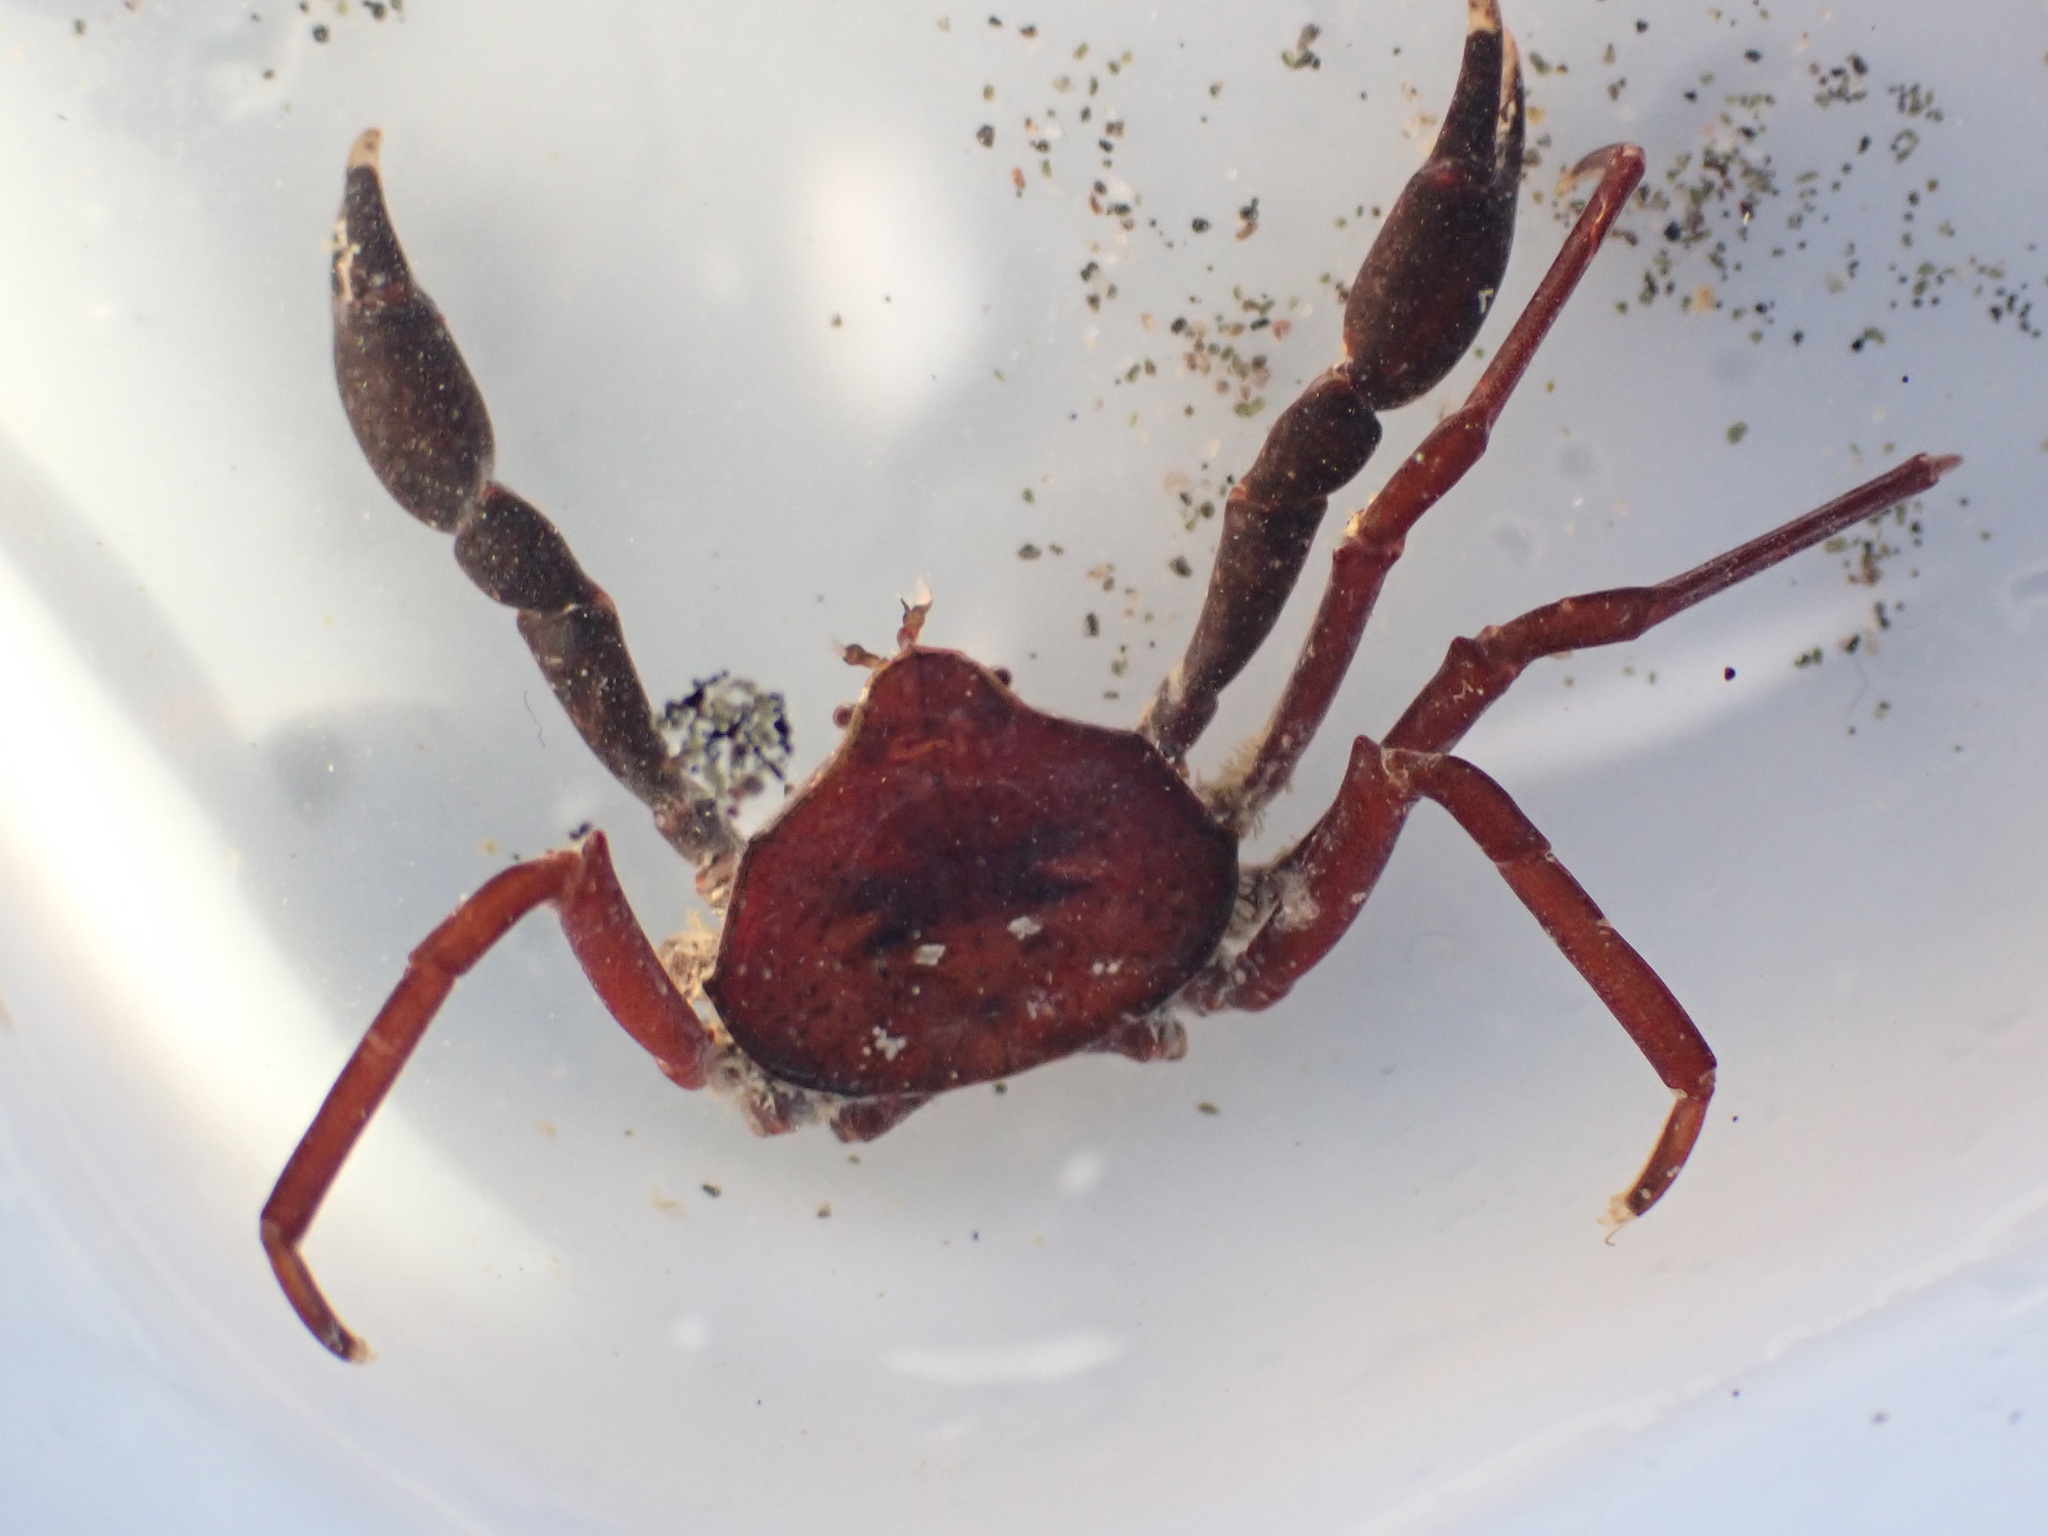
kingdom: Animalia
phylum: Arthropoda
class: Malacostraca
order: Decapoda
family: Hymenosomatidae
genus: Elamena
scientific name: Elamena producta
